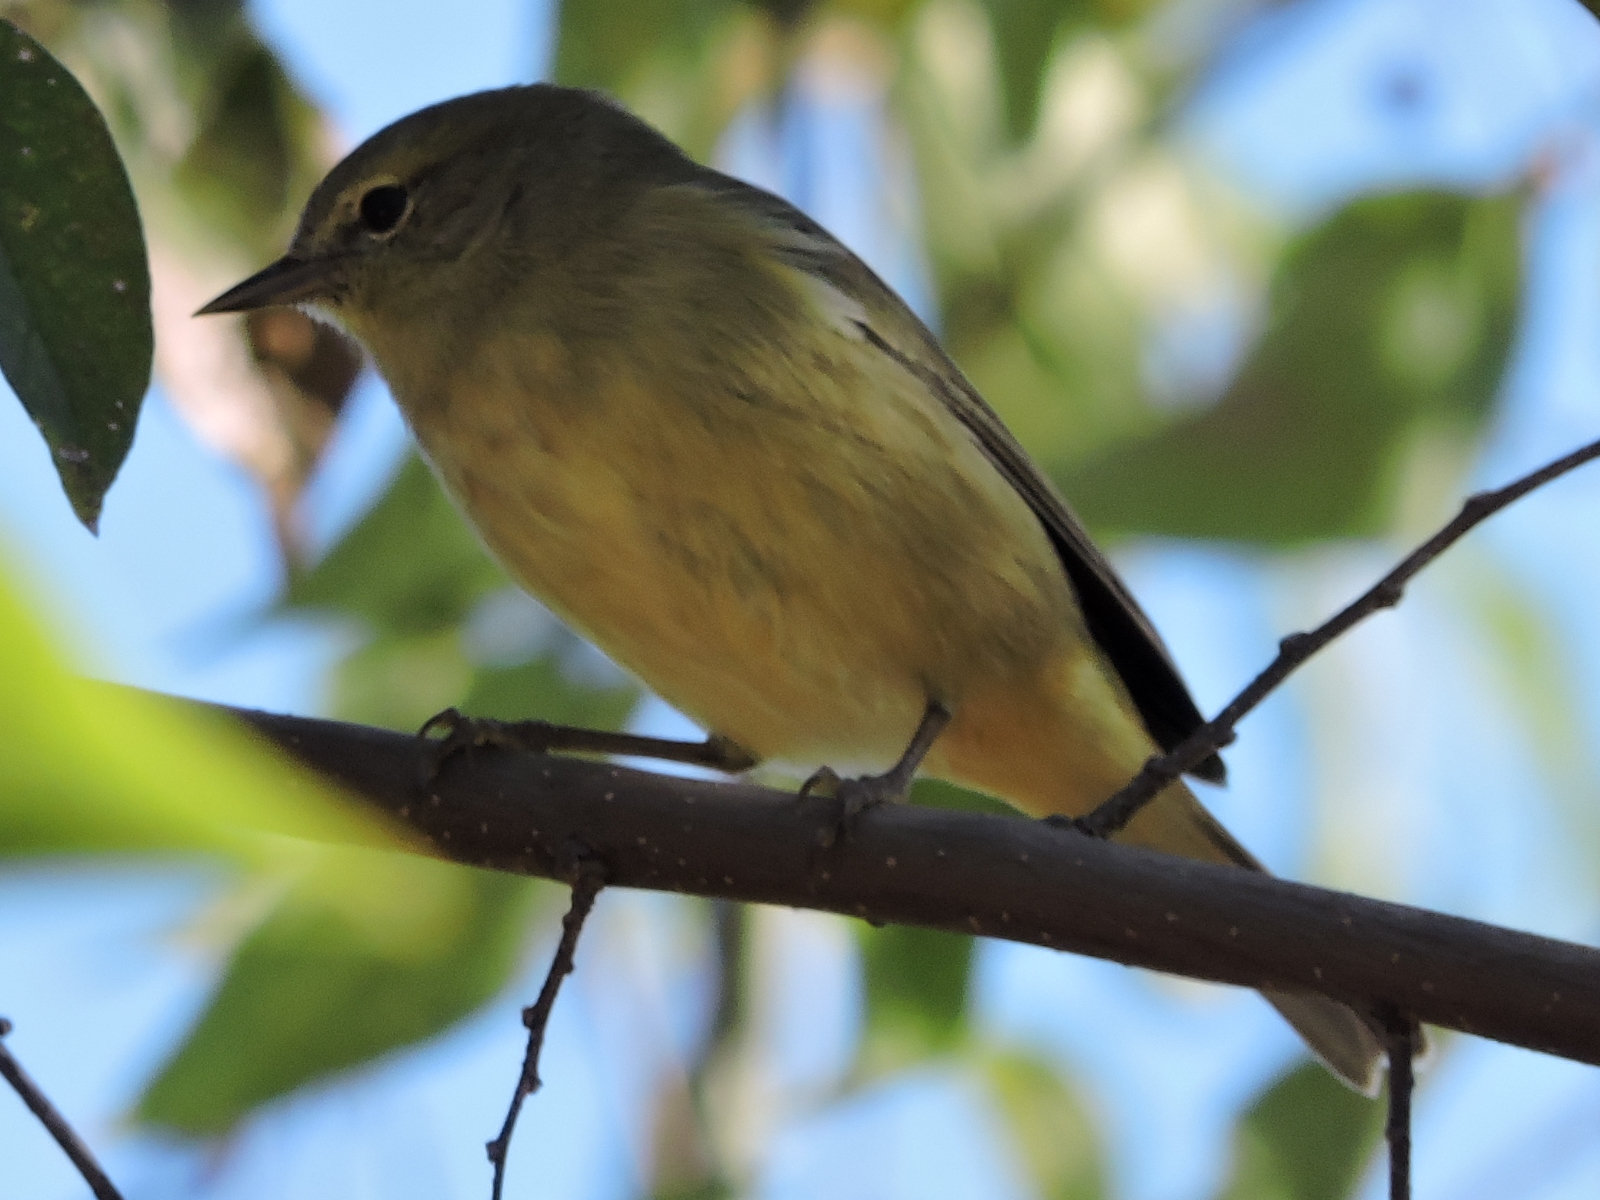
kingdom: Animalia
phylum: Chordata
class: Aves
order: Passeriformes
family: Parulidae
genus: Leiothlypis
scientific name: Leiothlypis celata
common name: Orange-crowned warbler
